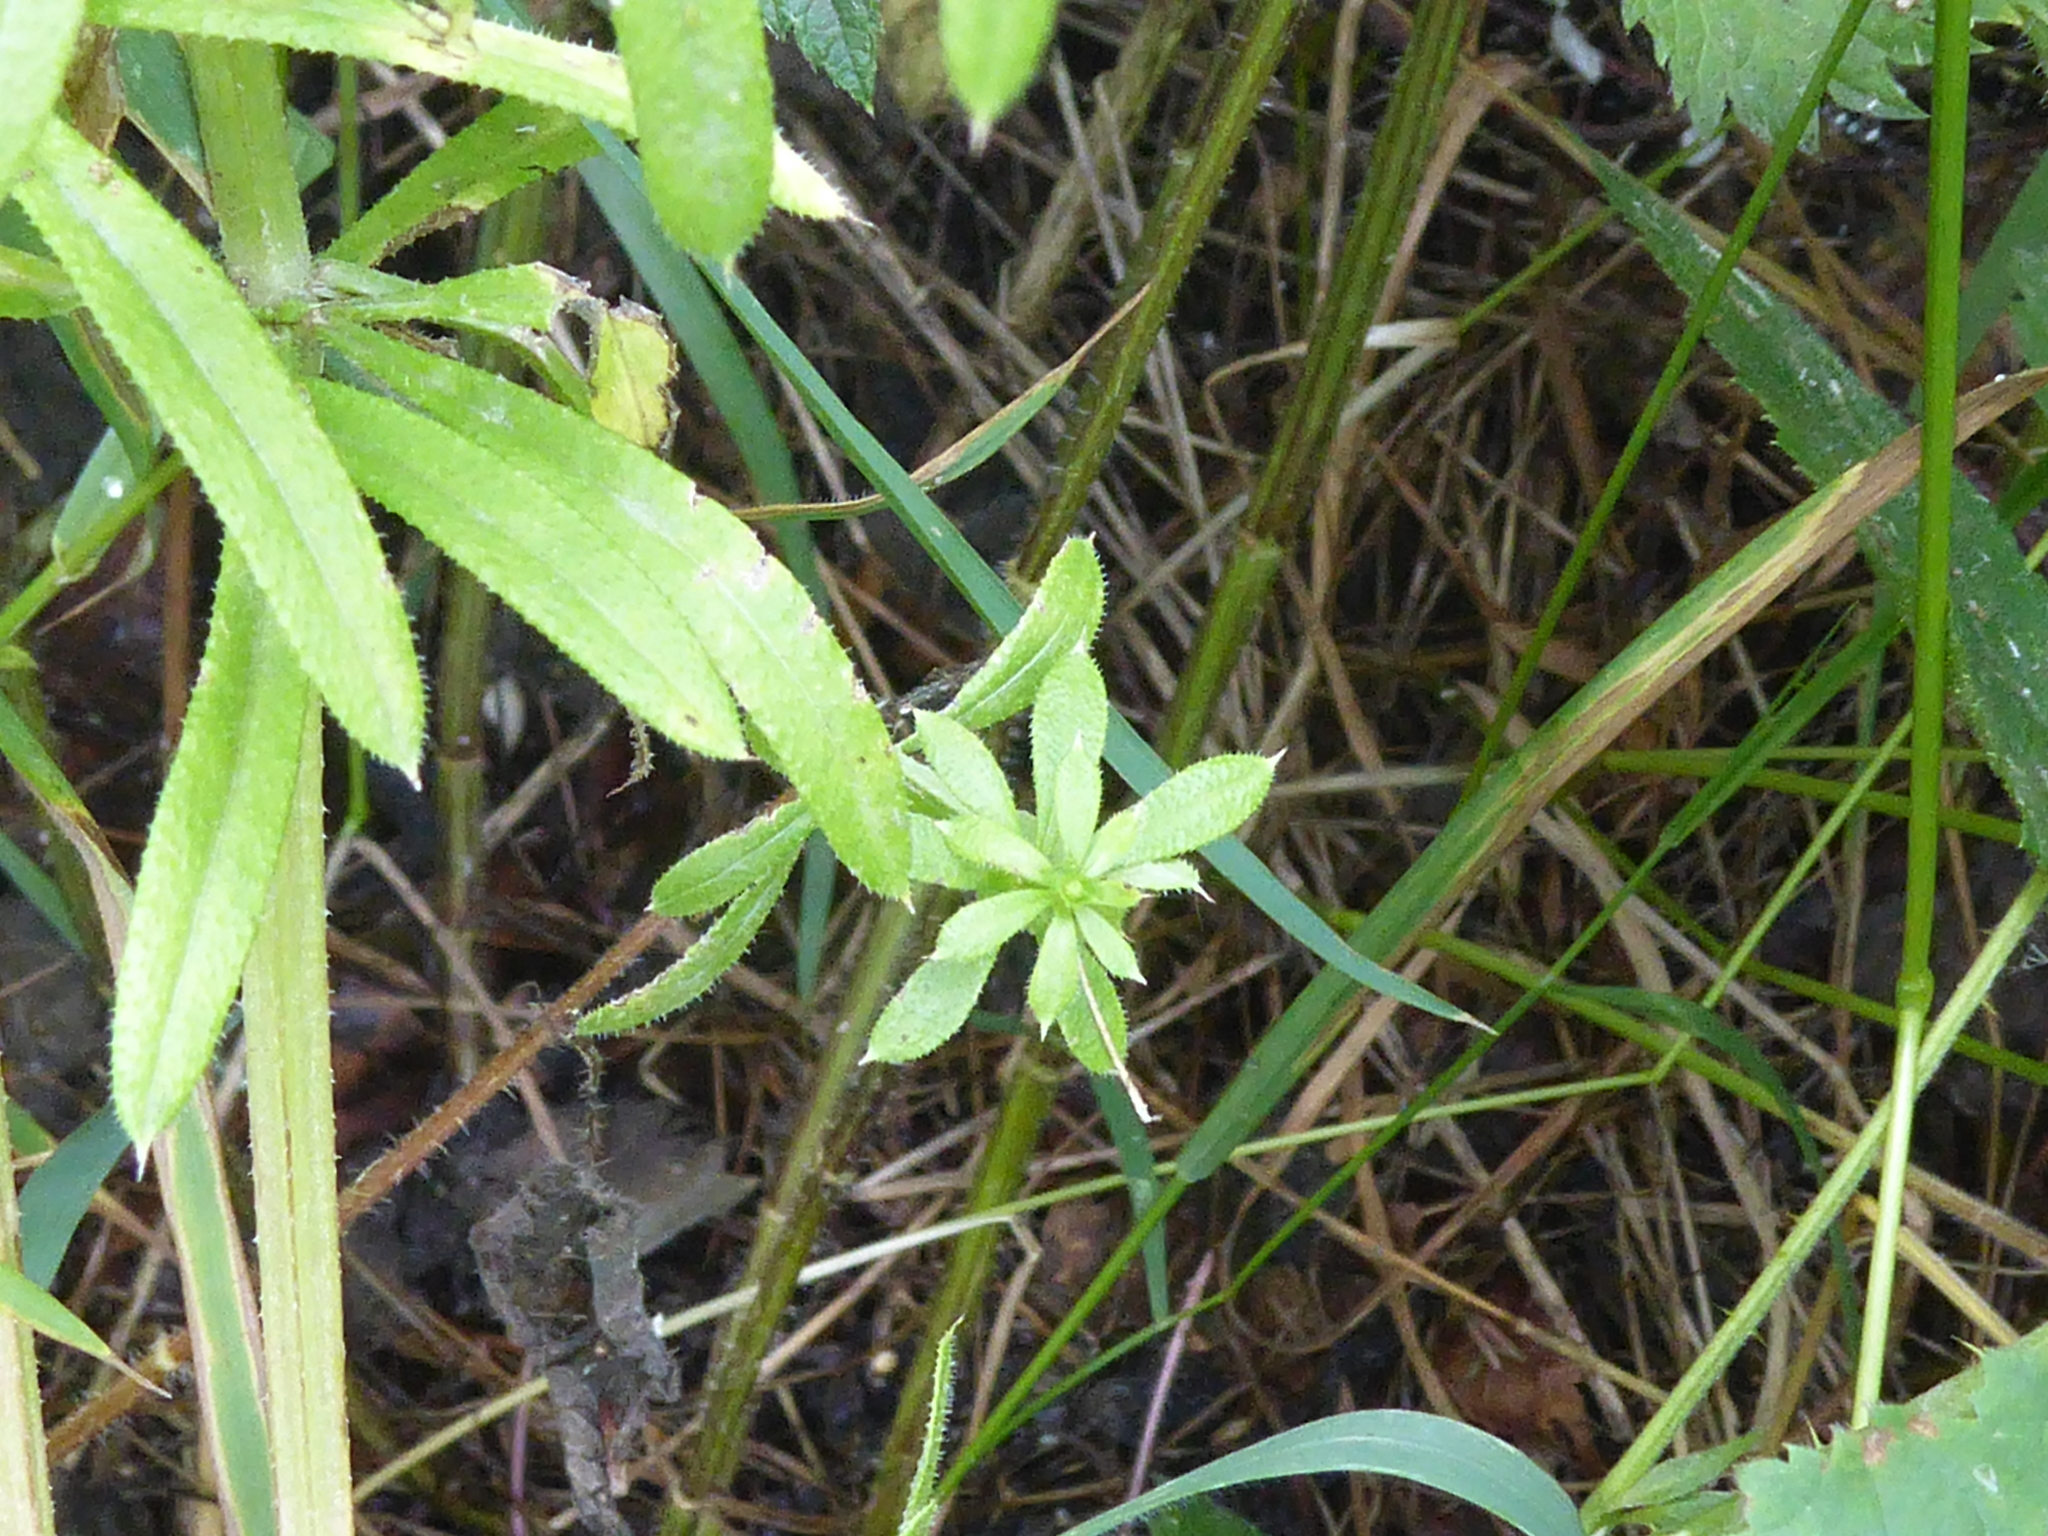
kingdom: Plantae
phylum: Tracheophyta
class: Magnoliopsida
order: Gentianales
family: Rubiaceae
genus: Galium
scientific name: Galium aparine
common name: Cleavers
